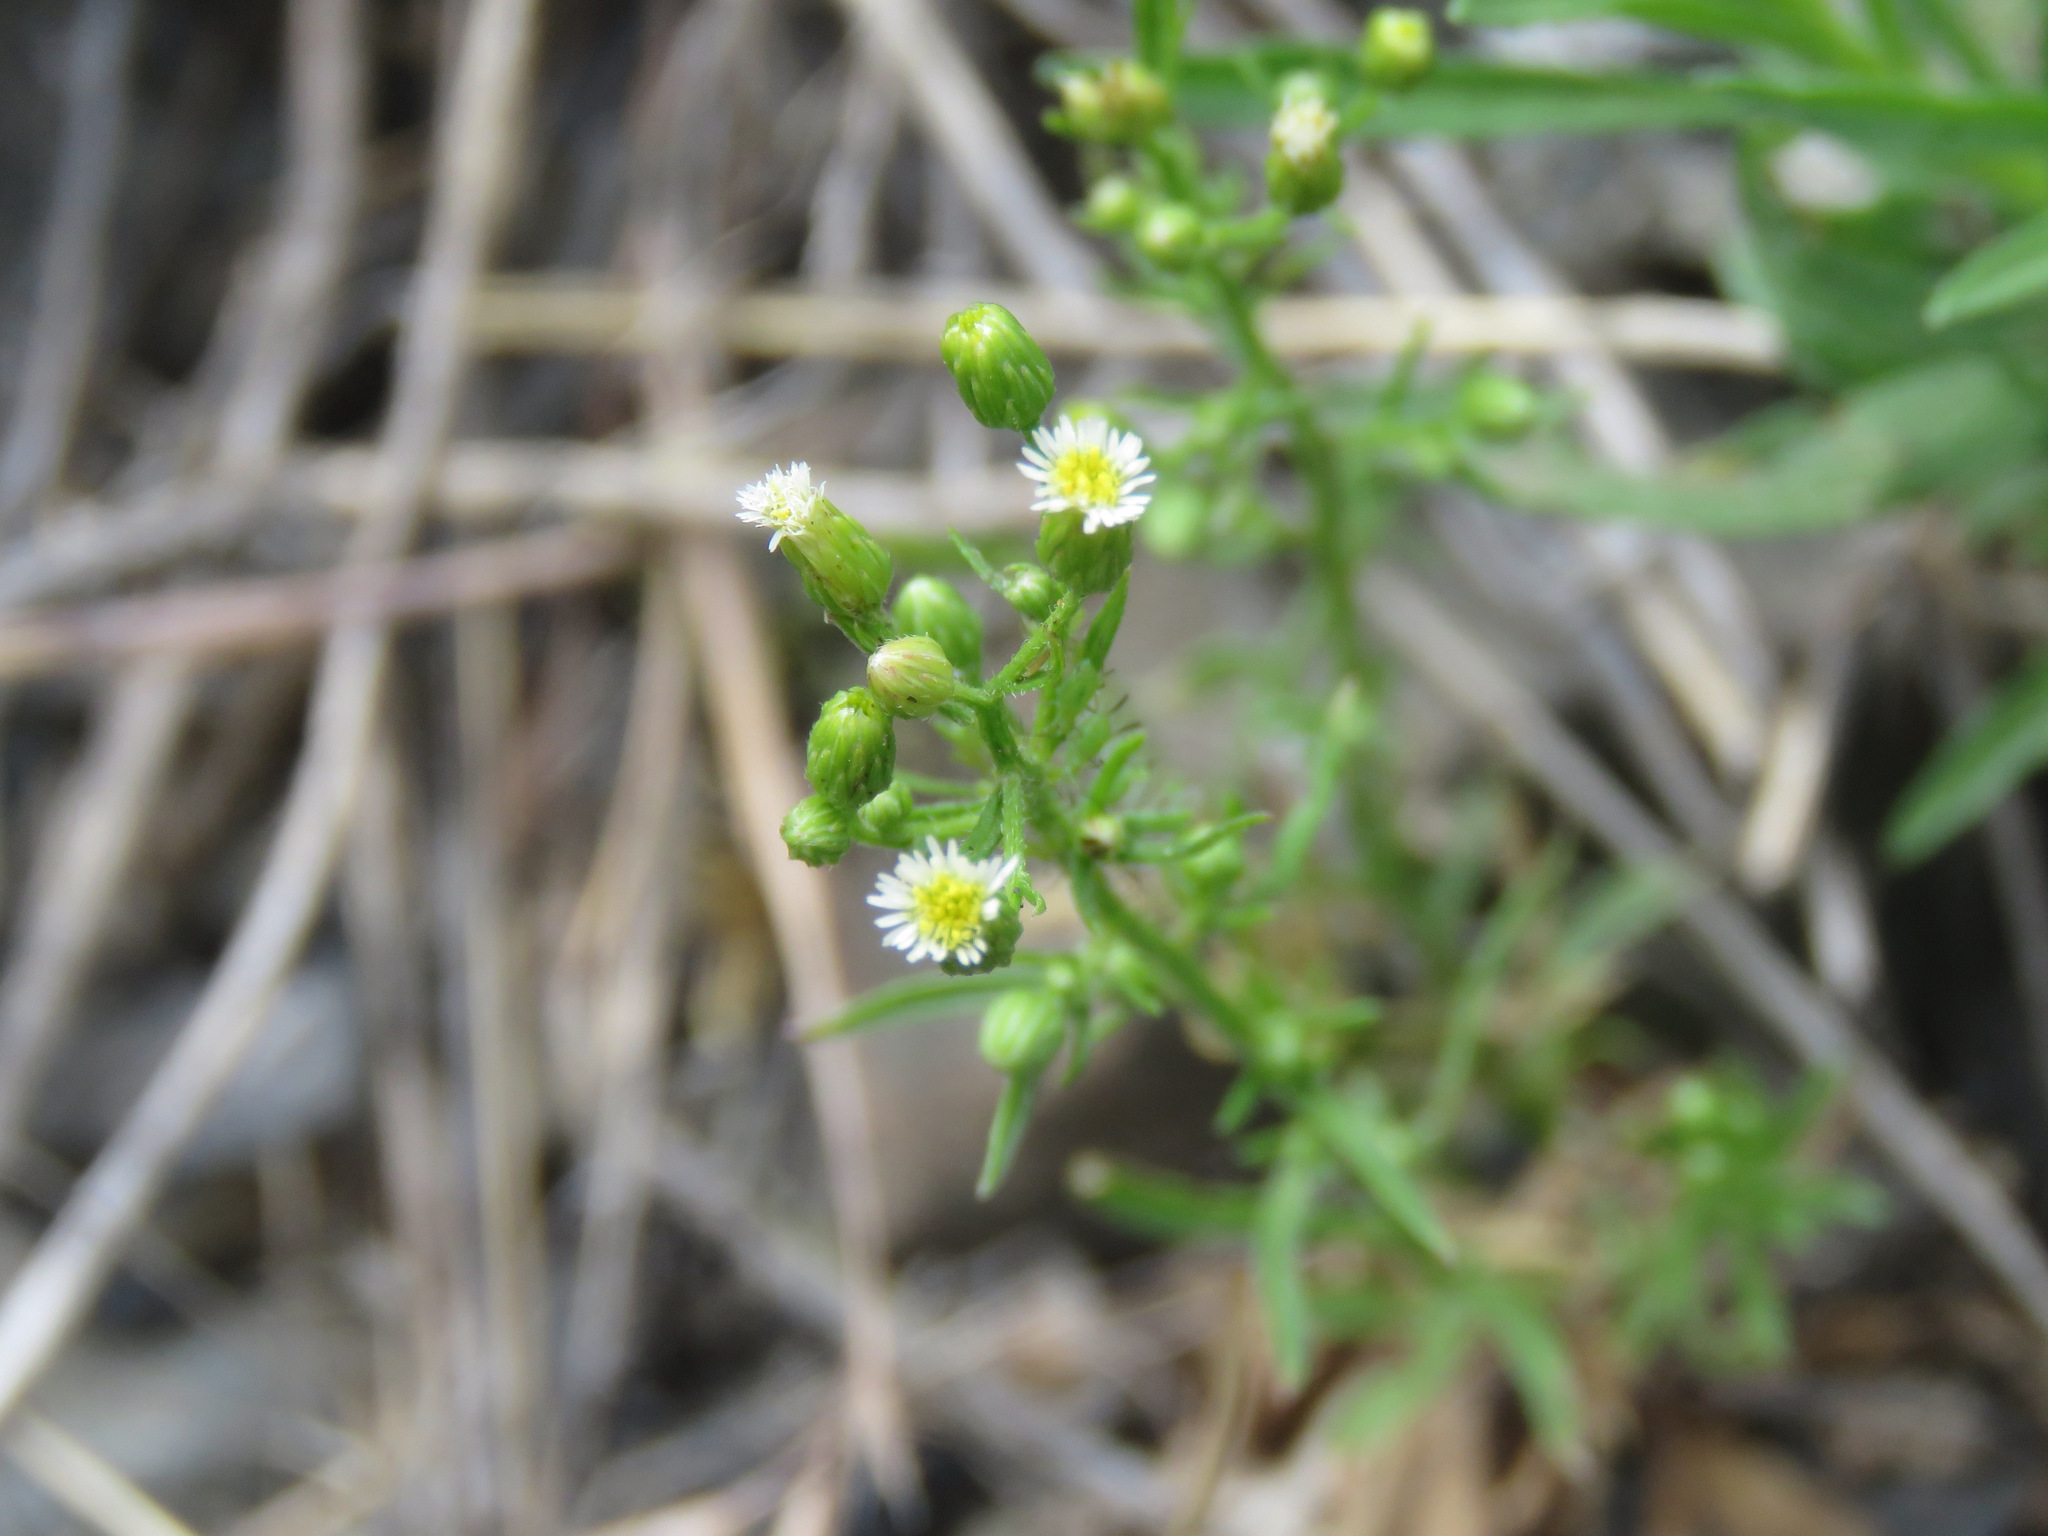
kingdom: Plantae
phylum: Tracheophyta
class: Magnoliopsida
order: Asterales
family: Asteraceae
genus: Symphyotrichum
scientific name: Symphyotrichum ericoides
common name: Heath aster
